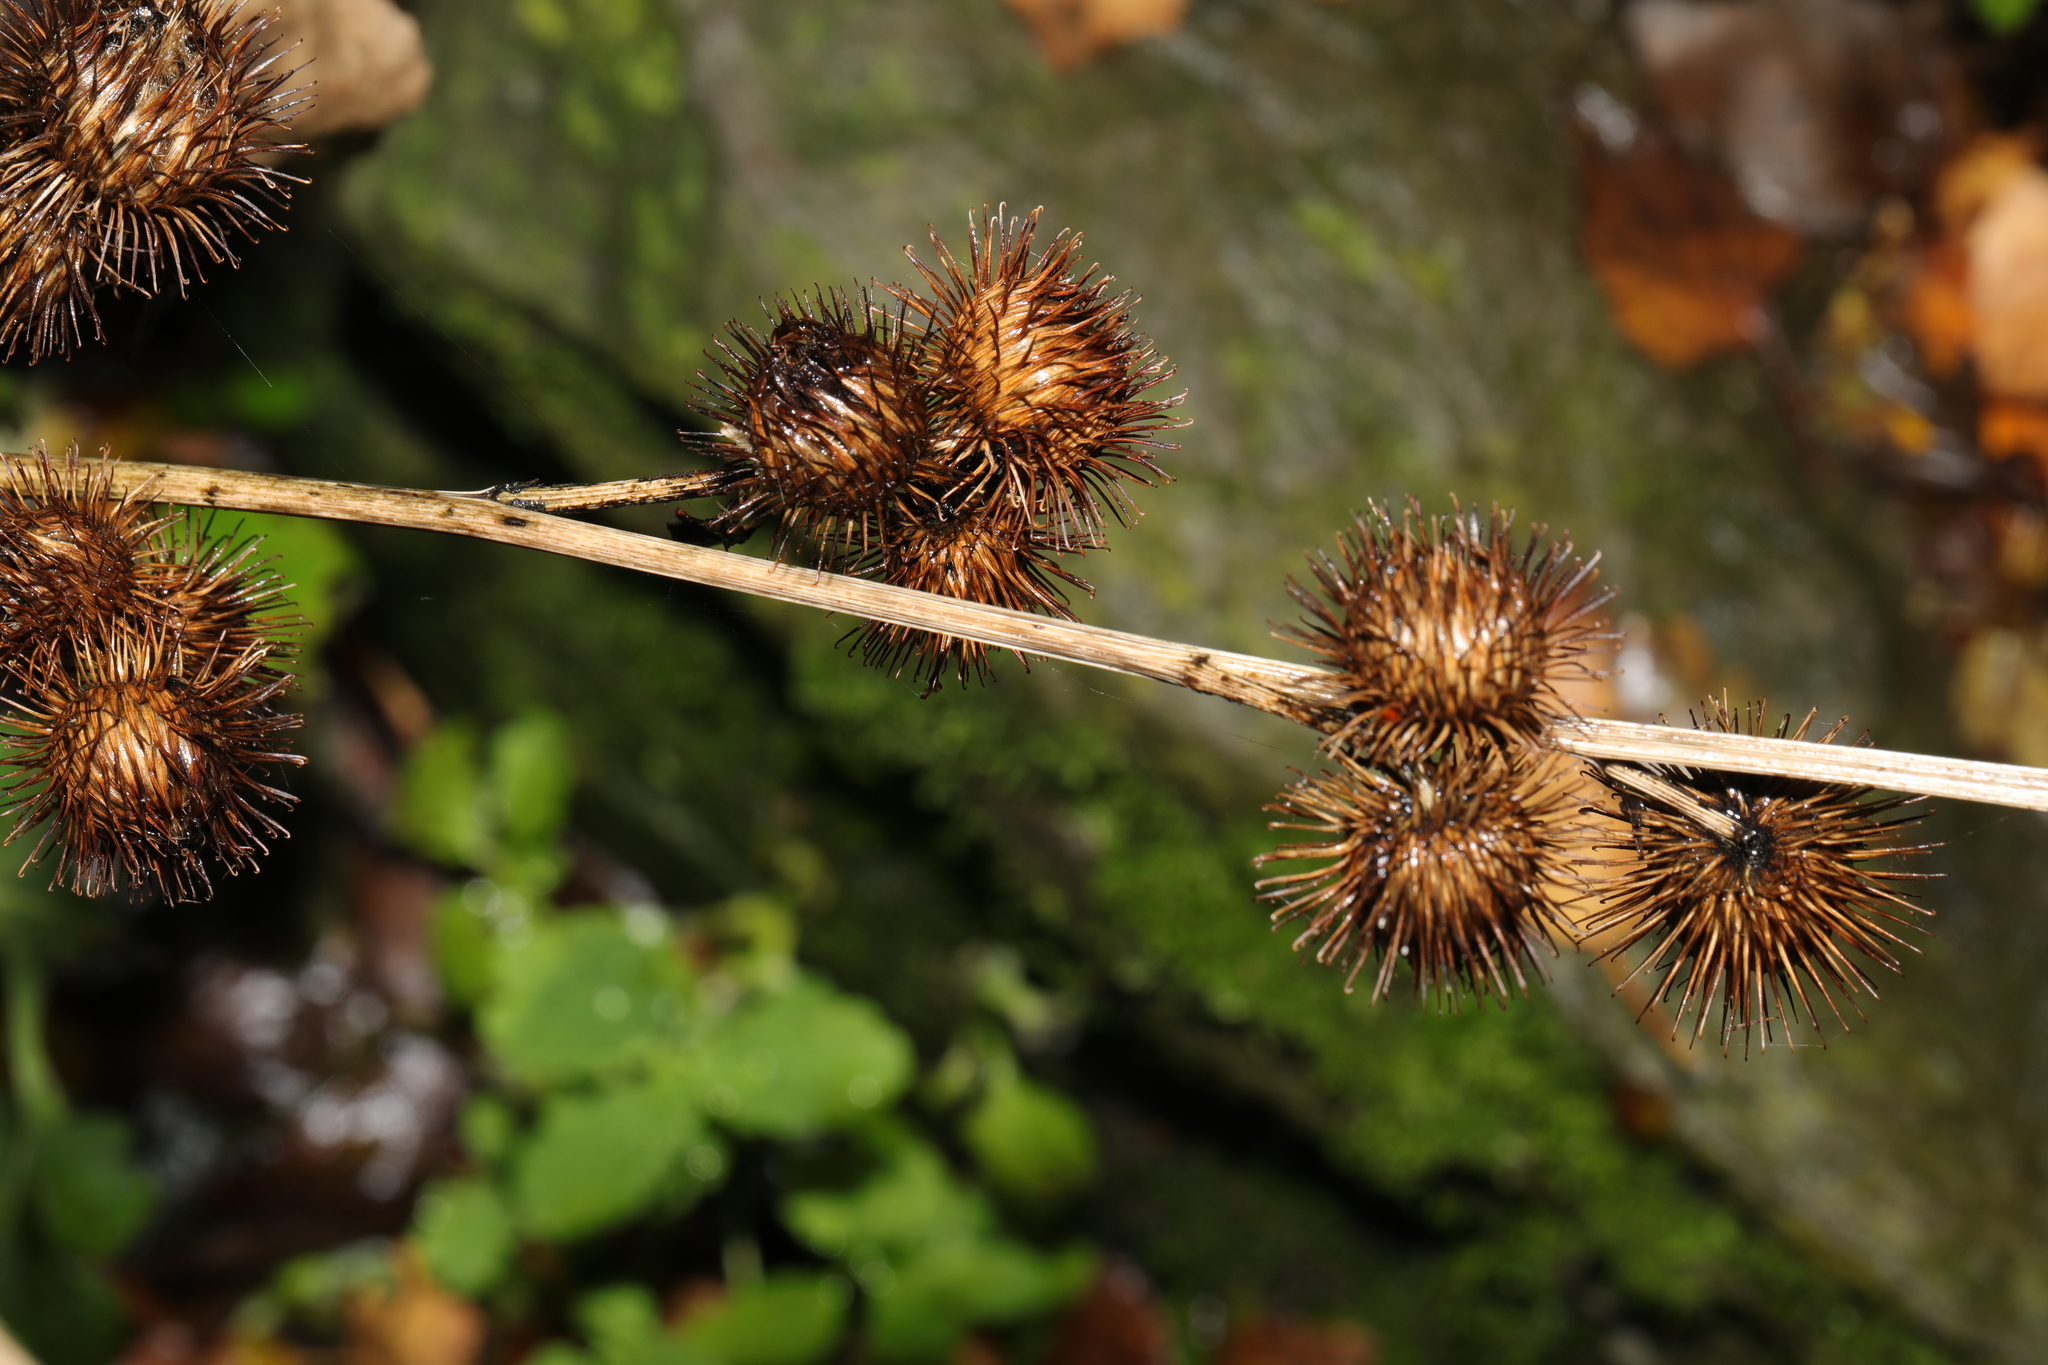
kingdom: Plantae
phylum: Tracheophyta
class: Magnoliopsida
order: Asterales
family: Asteraceae
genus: Arctium
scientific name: Arctium minus
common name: Lesser burdock
